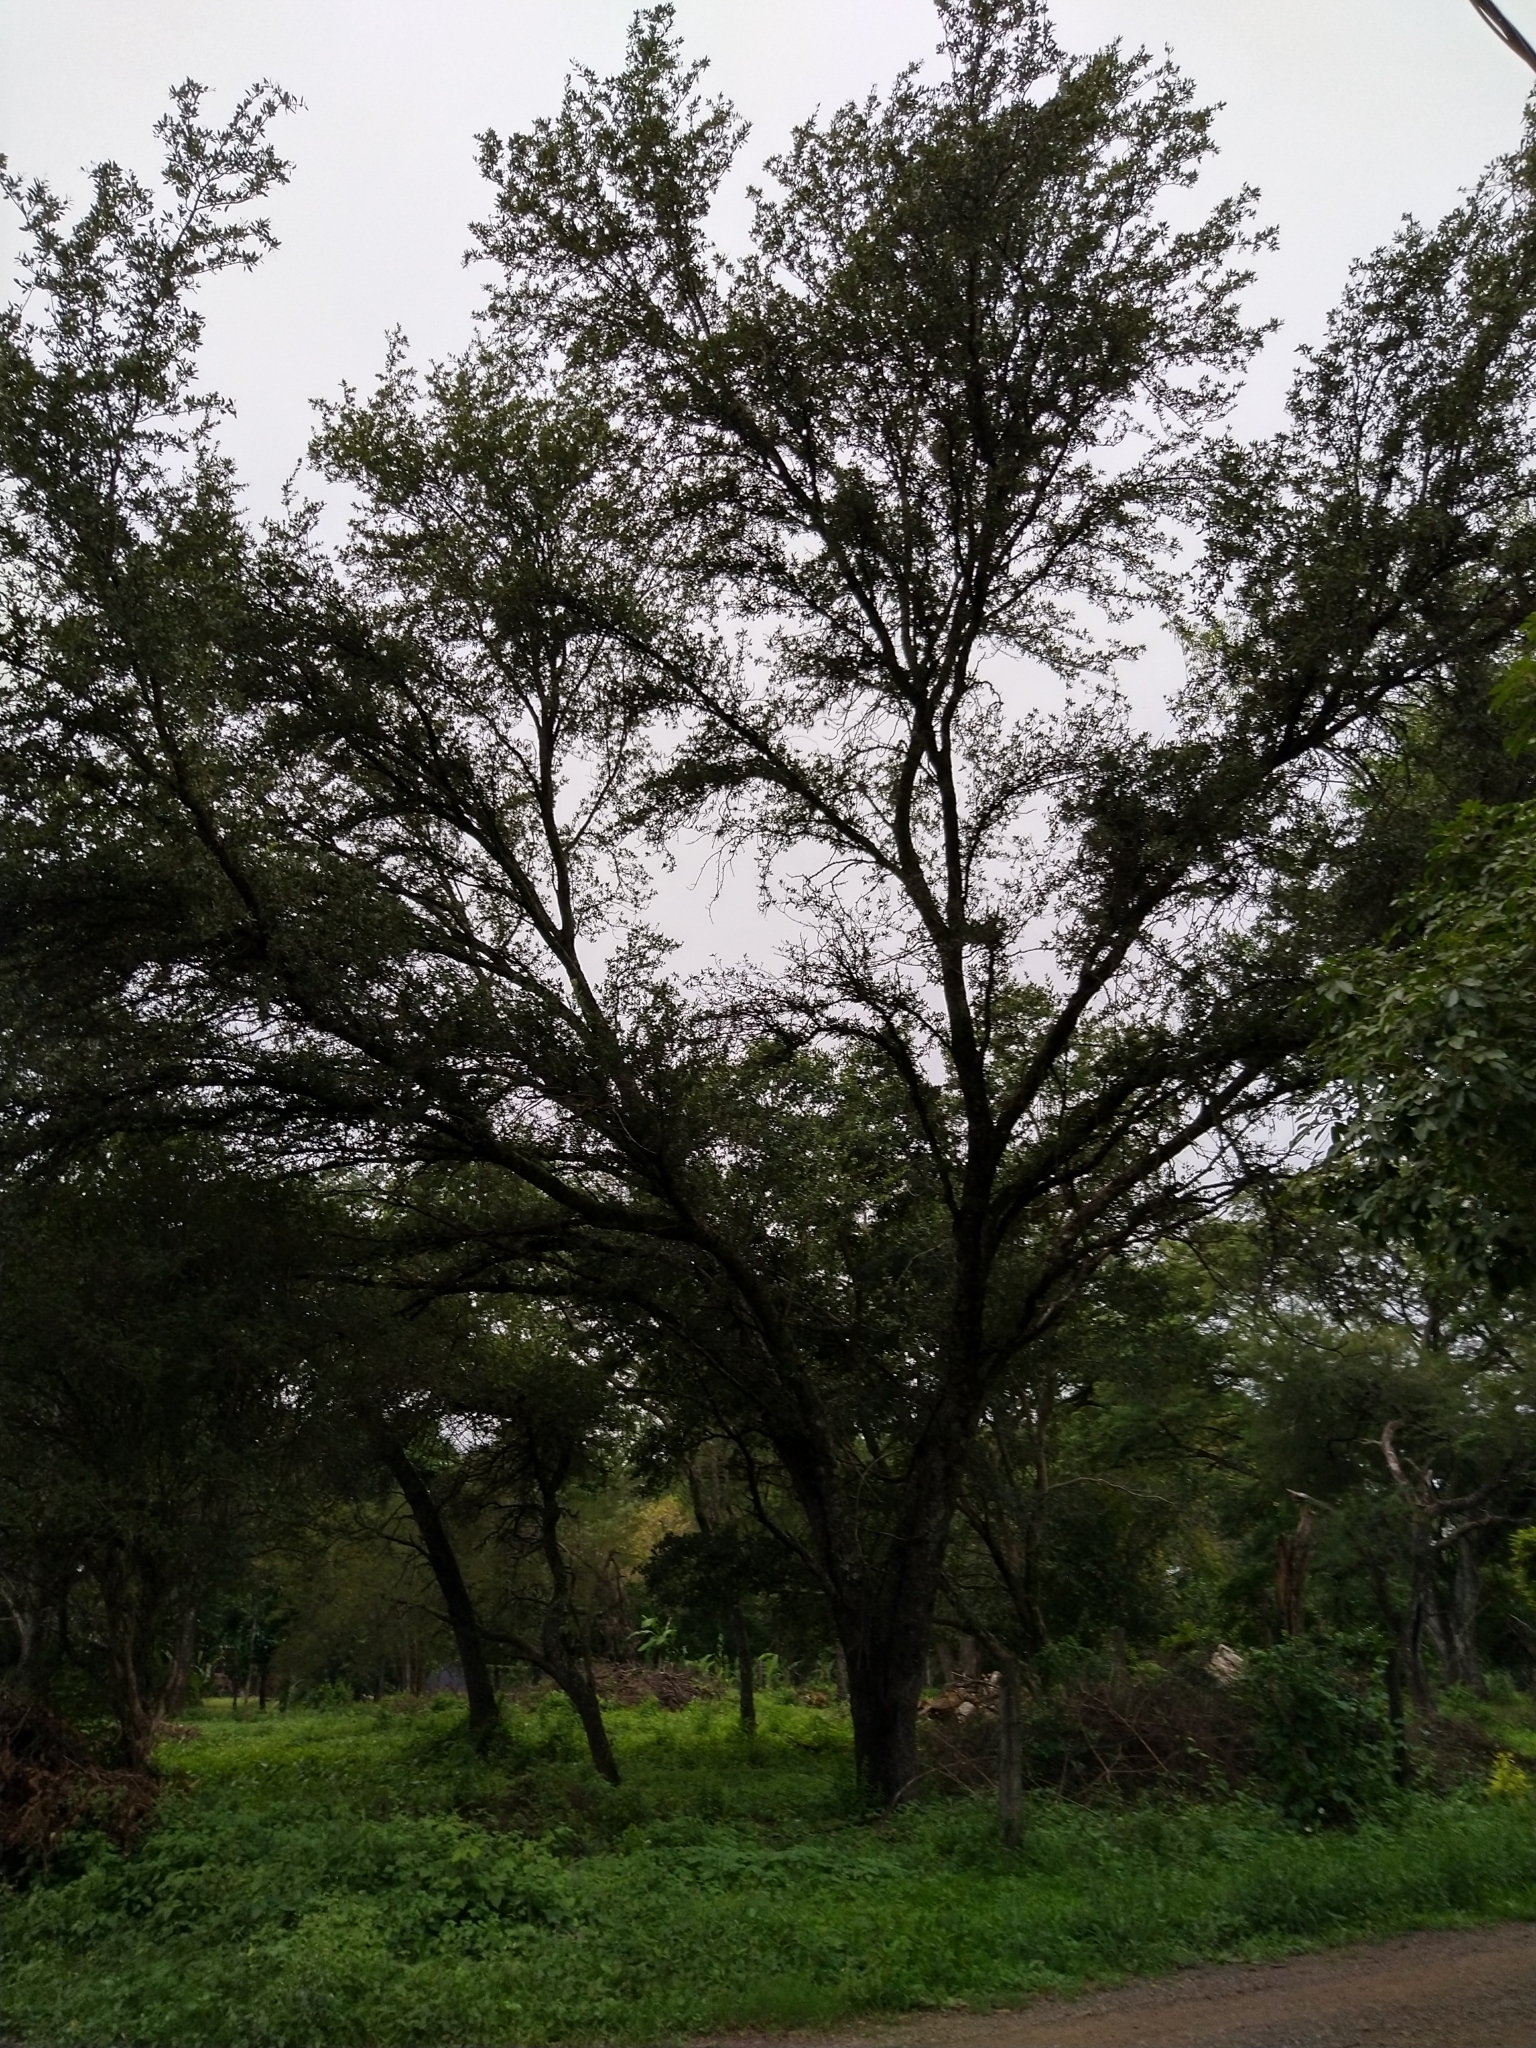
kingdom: Plantae
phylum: Tracheophyta
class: Magnoliopsida
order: Sapindales
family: Anacardiaceae
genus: Schinopsis
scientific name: Schinopsis balansae
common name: Red quebracho
